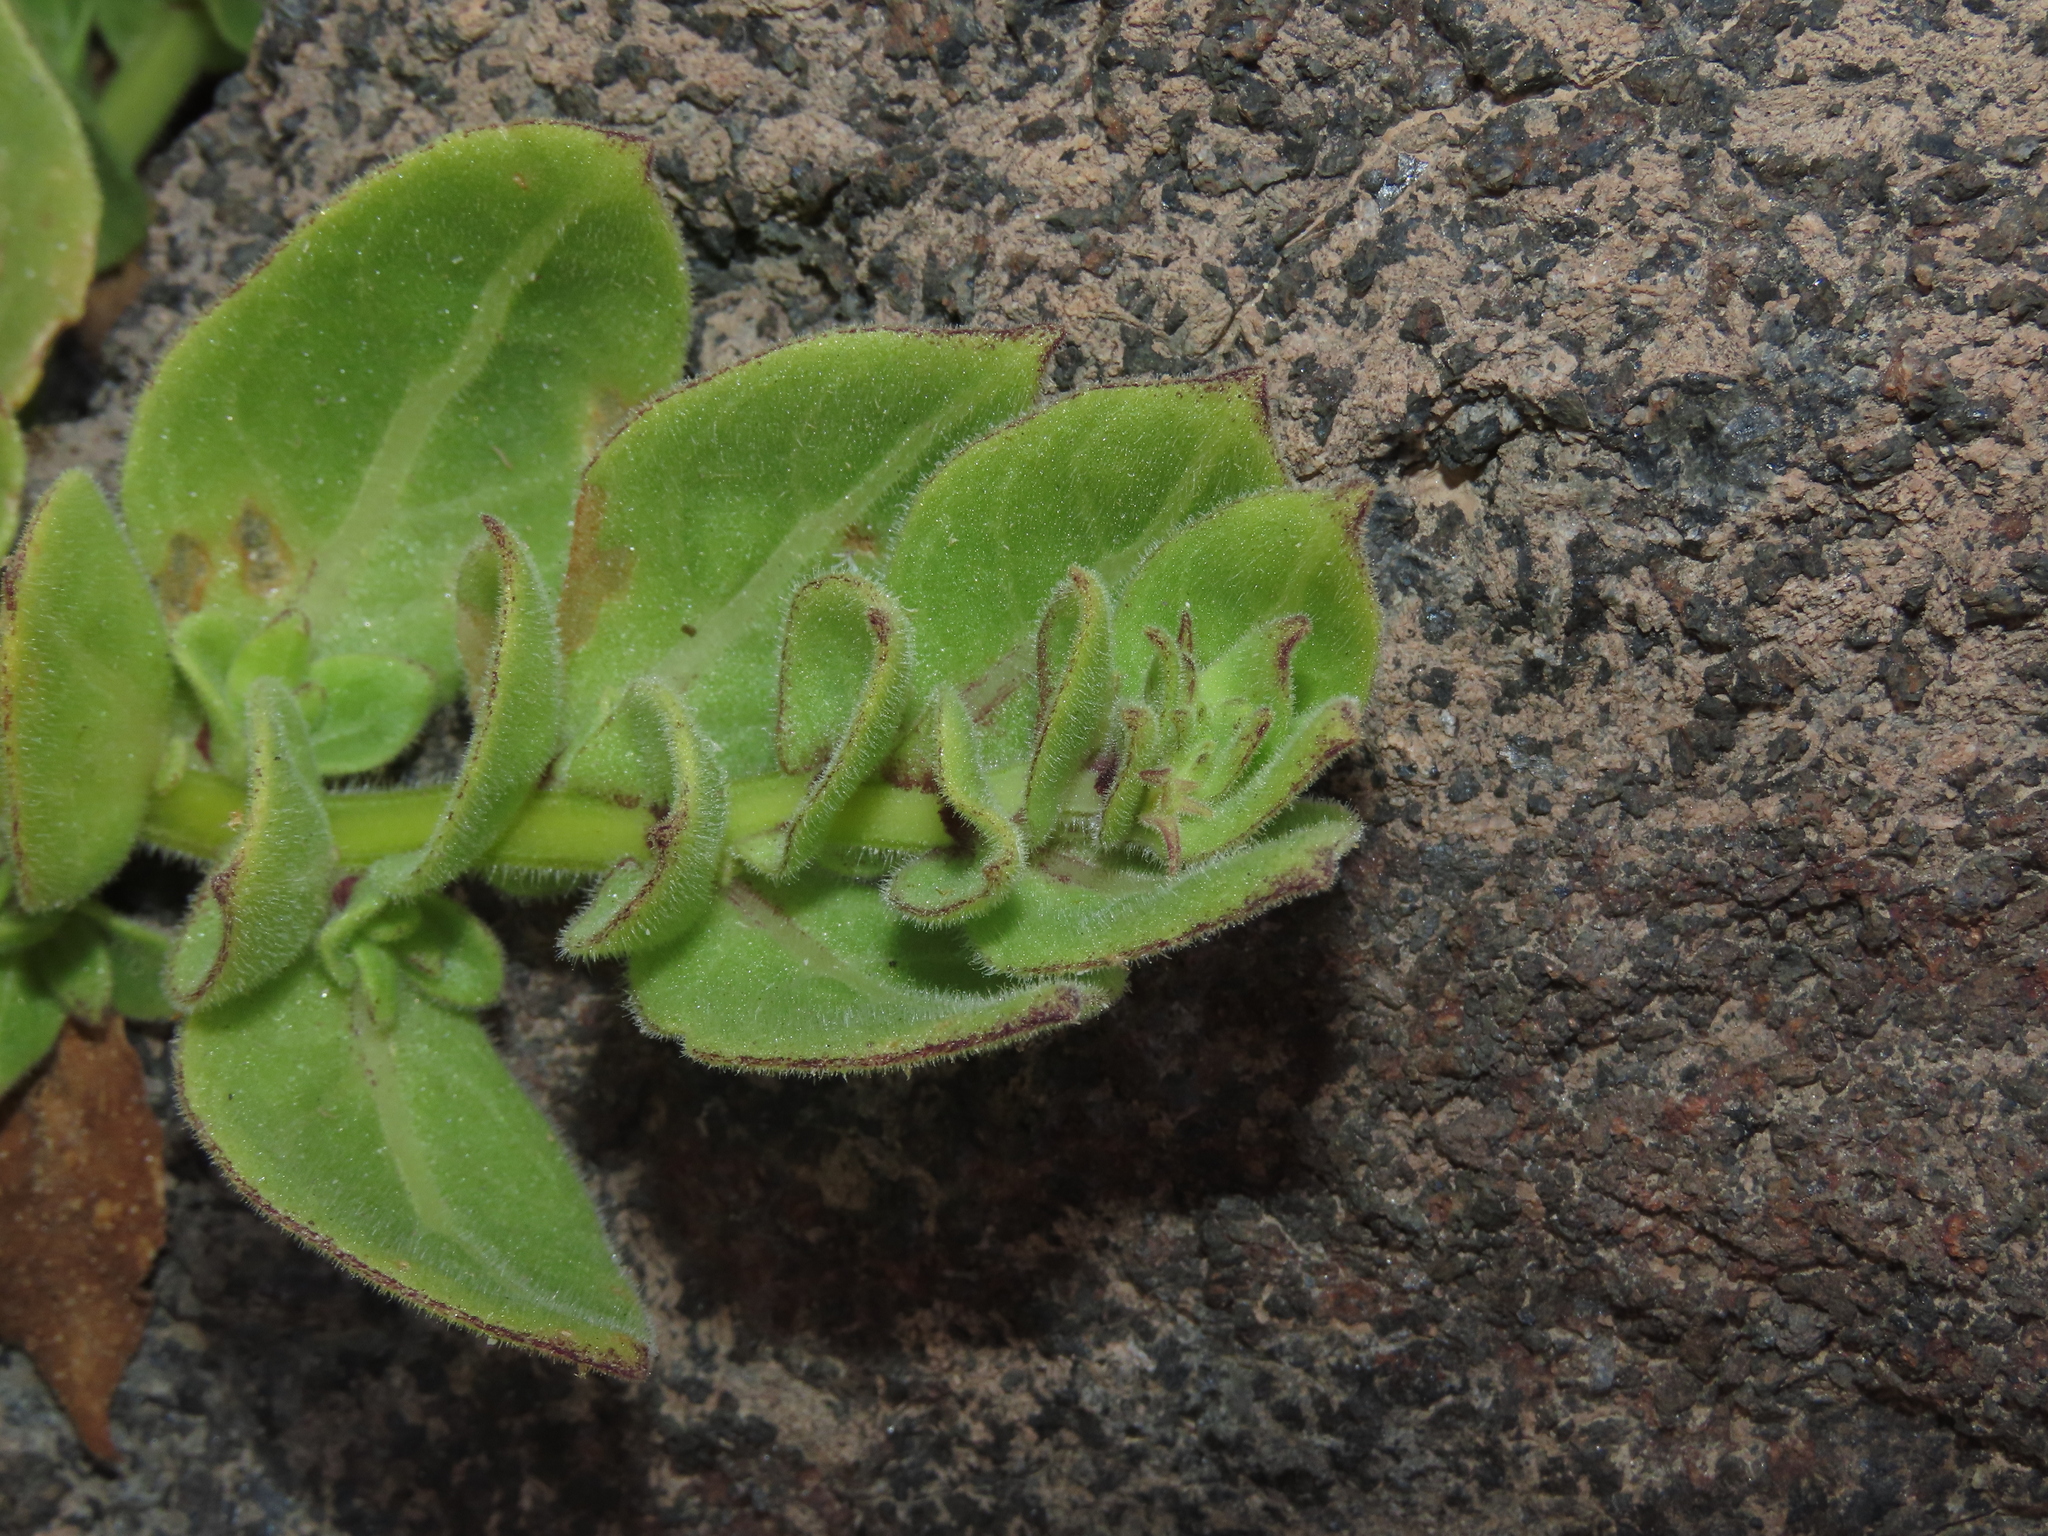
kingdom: Plantae
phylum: Tracheophyta
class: Magnoliopsida
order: Solanales
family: Solanaceae
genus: Nolana
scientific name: Nolana rupicola
